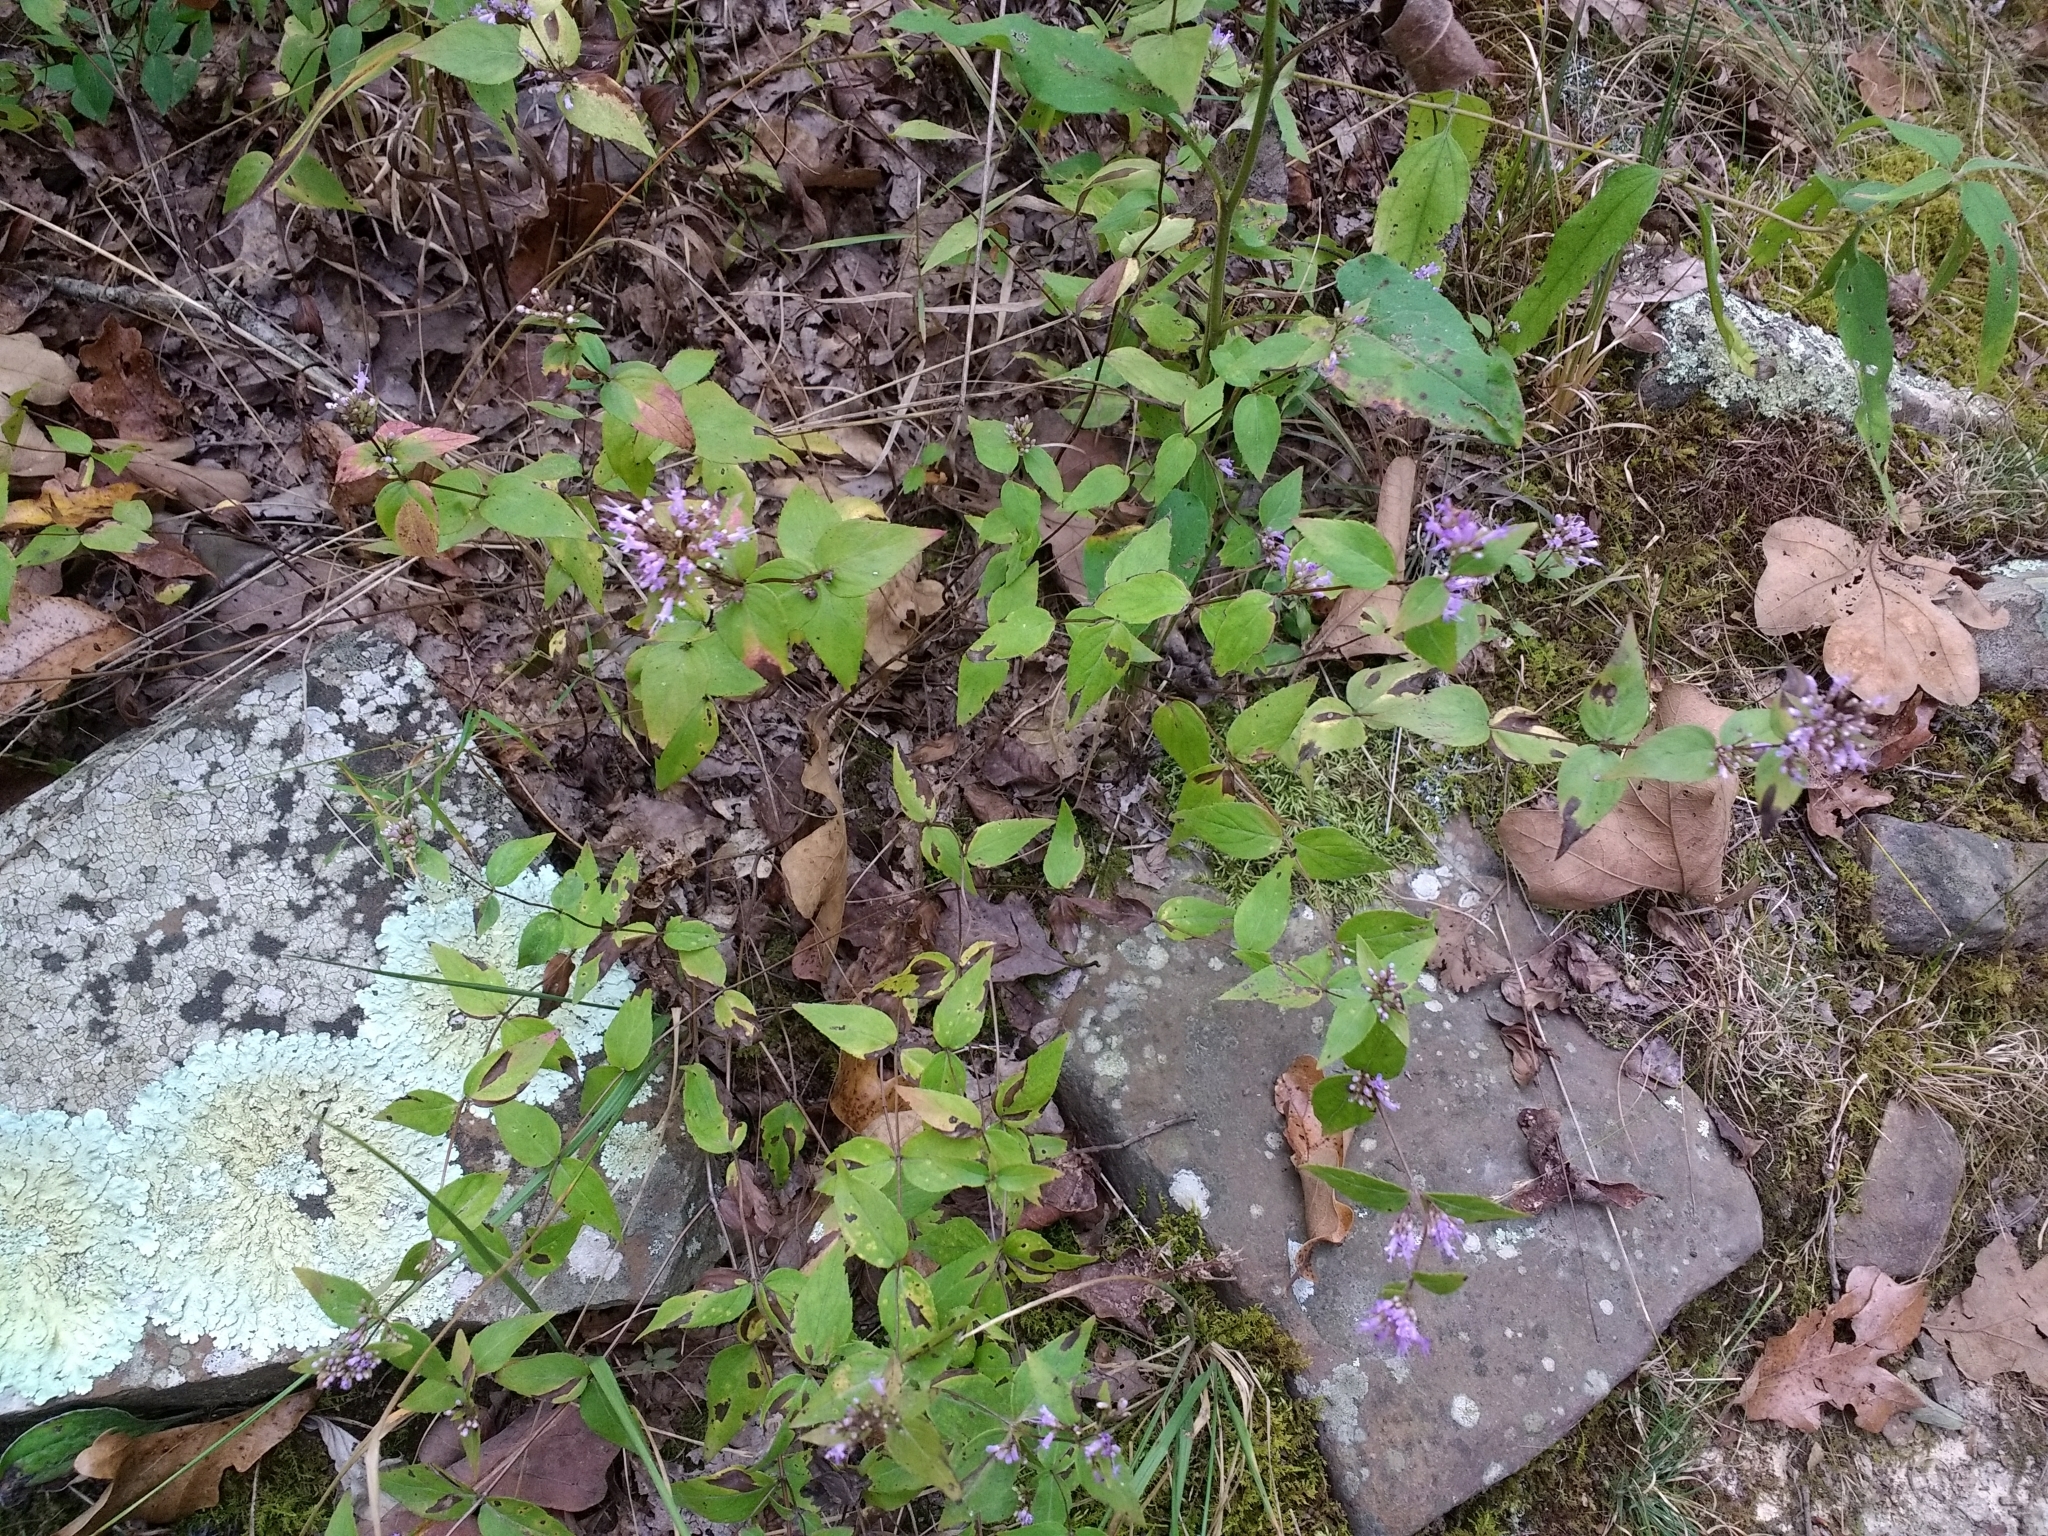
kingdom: Plantae
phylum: Tracheophyta
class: Magnoliopsida
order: Lamiales
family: Lamiaceae
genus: Cunila
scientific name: Cunila origanoides
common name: American dittany
